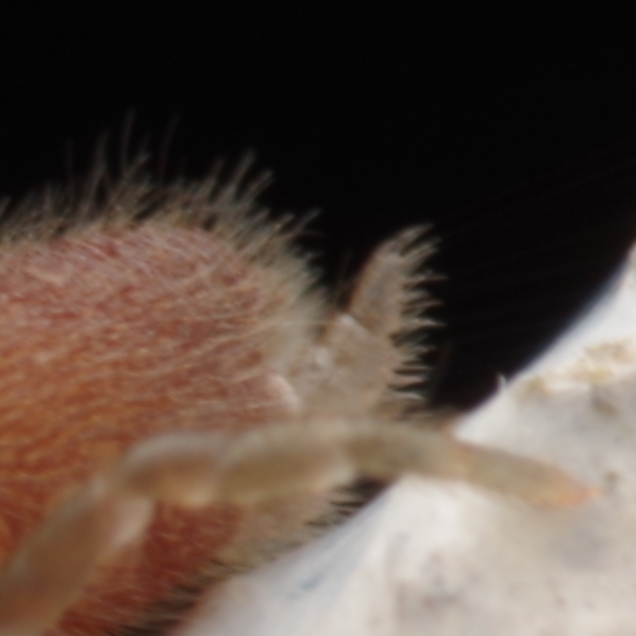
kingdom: Animalia
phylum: Arthropoda
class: Arachnida
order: Araneae
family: Atypidae
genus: Atypus
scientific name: Atypus
